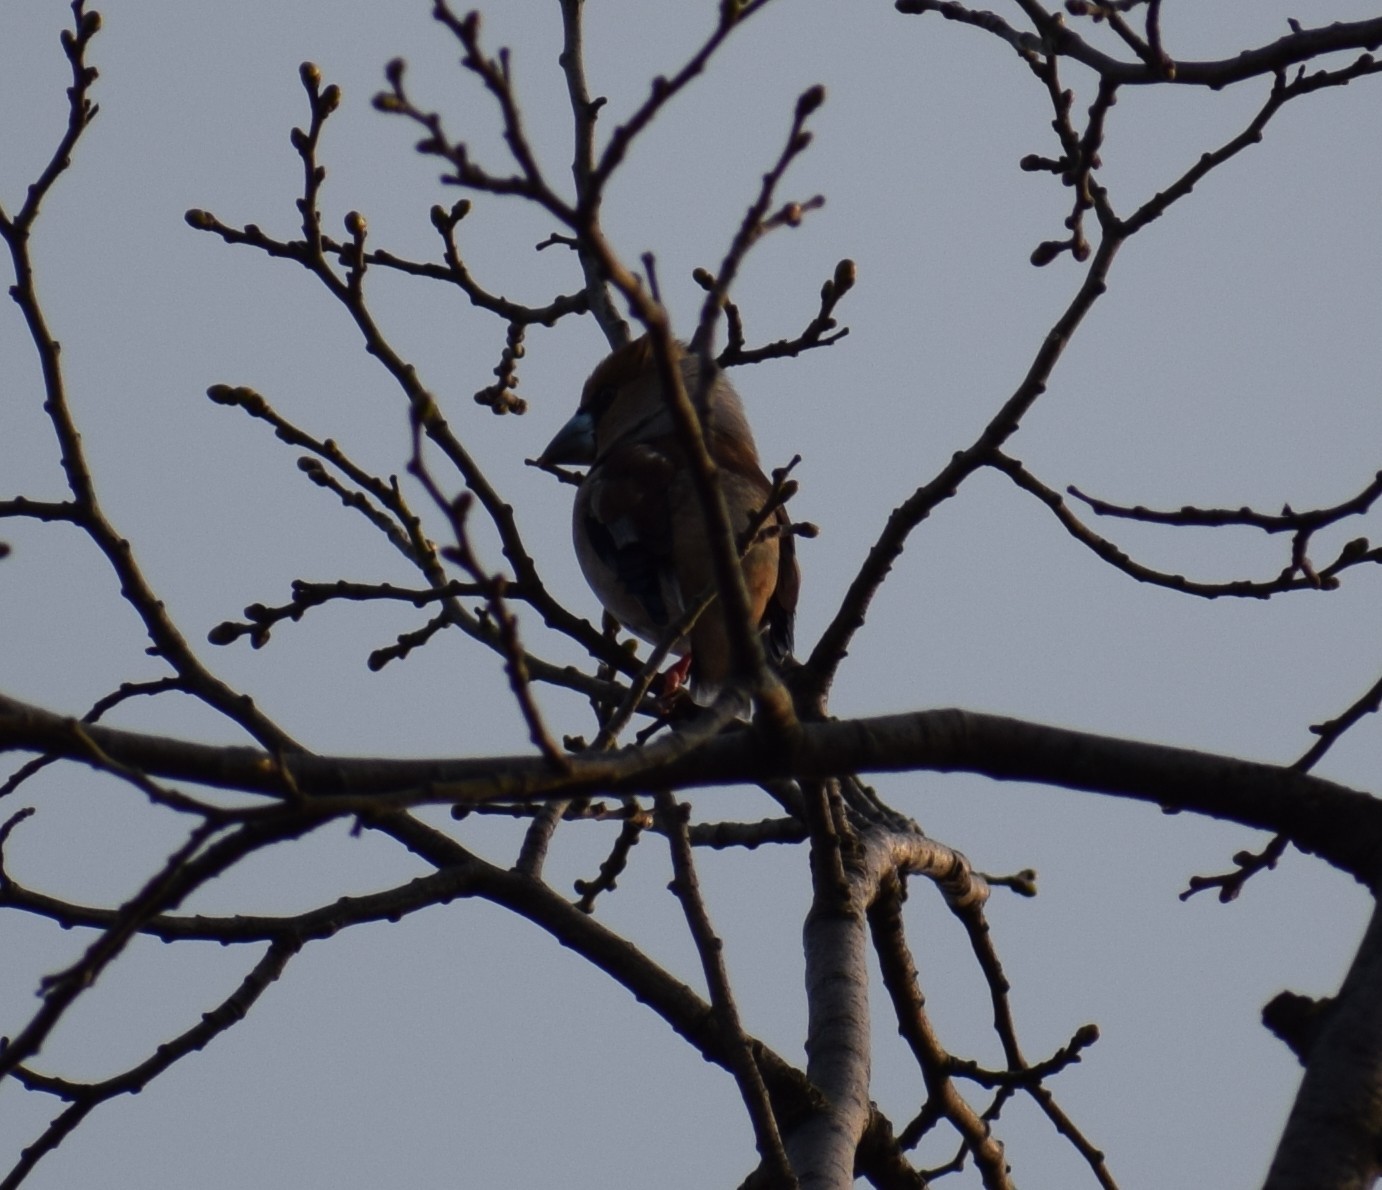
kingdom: Animalia
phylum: Chordata
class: Aves
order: Passeriformes
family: Fringillidae
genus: Coccothraustes
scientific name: Coccothraustes coccothraustes
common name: Hawfinch
